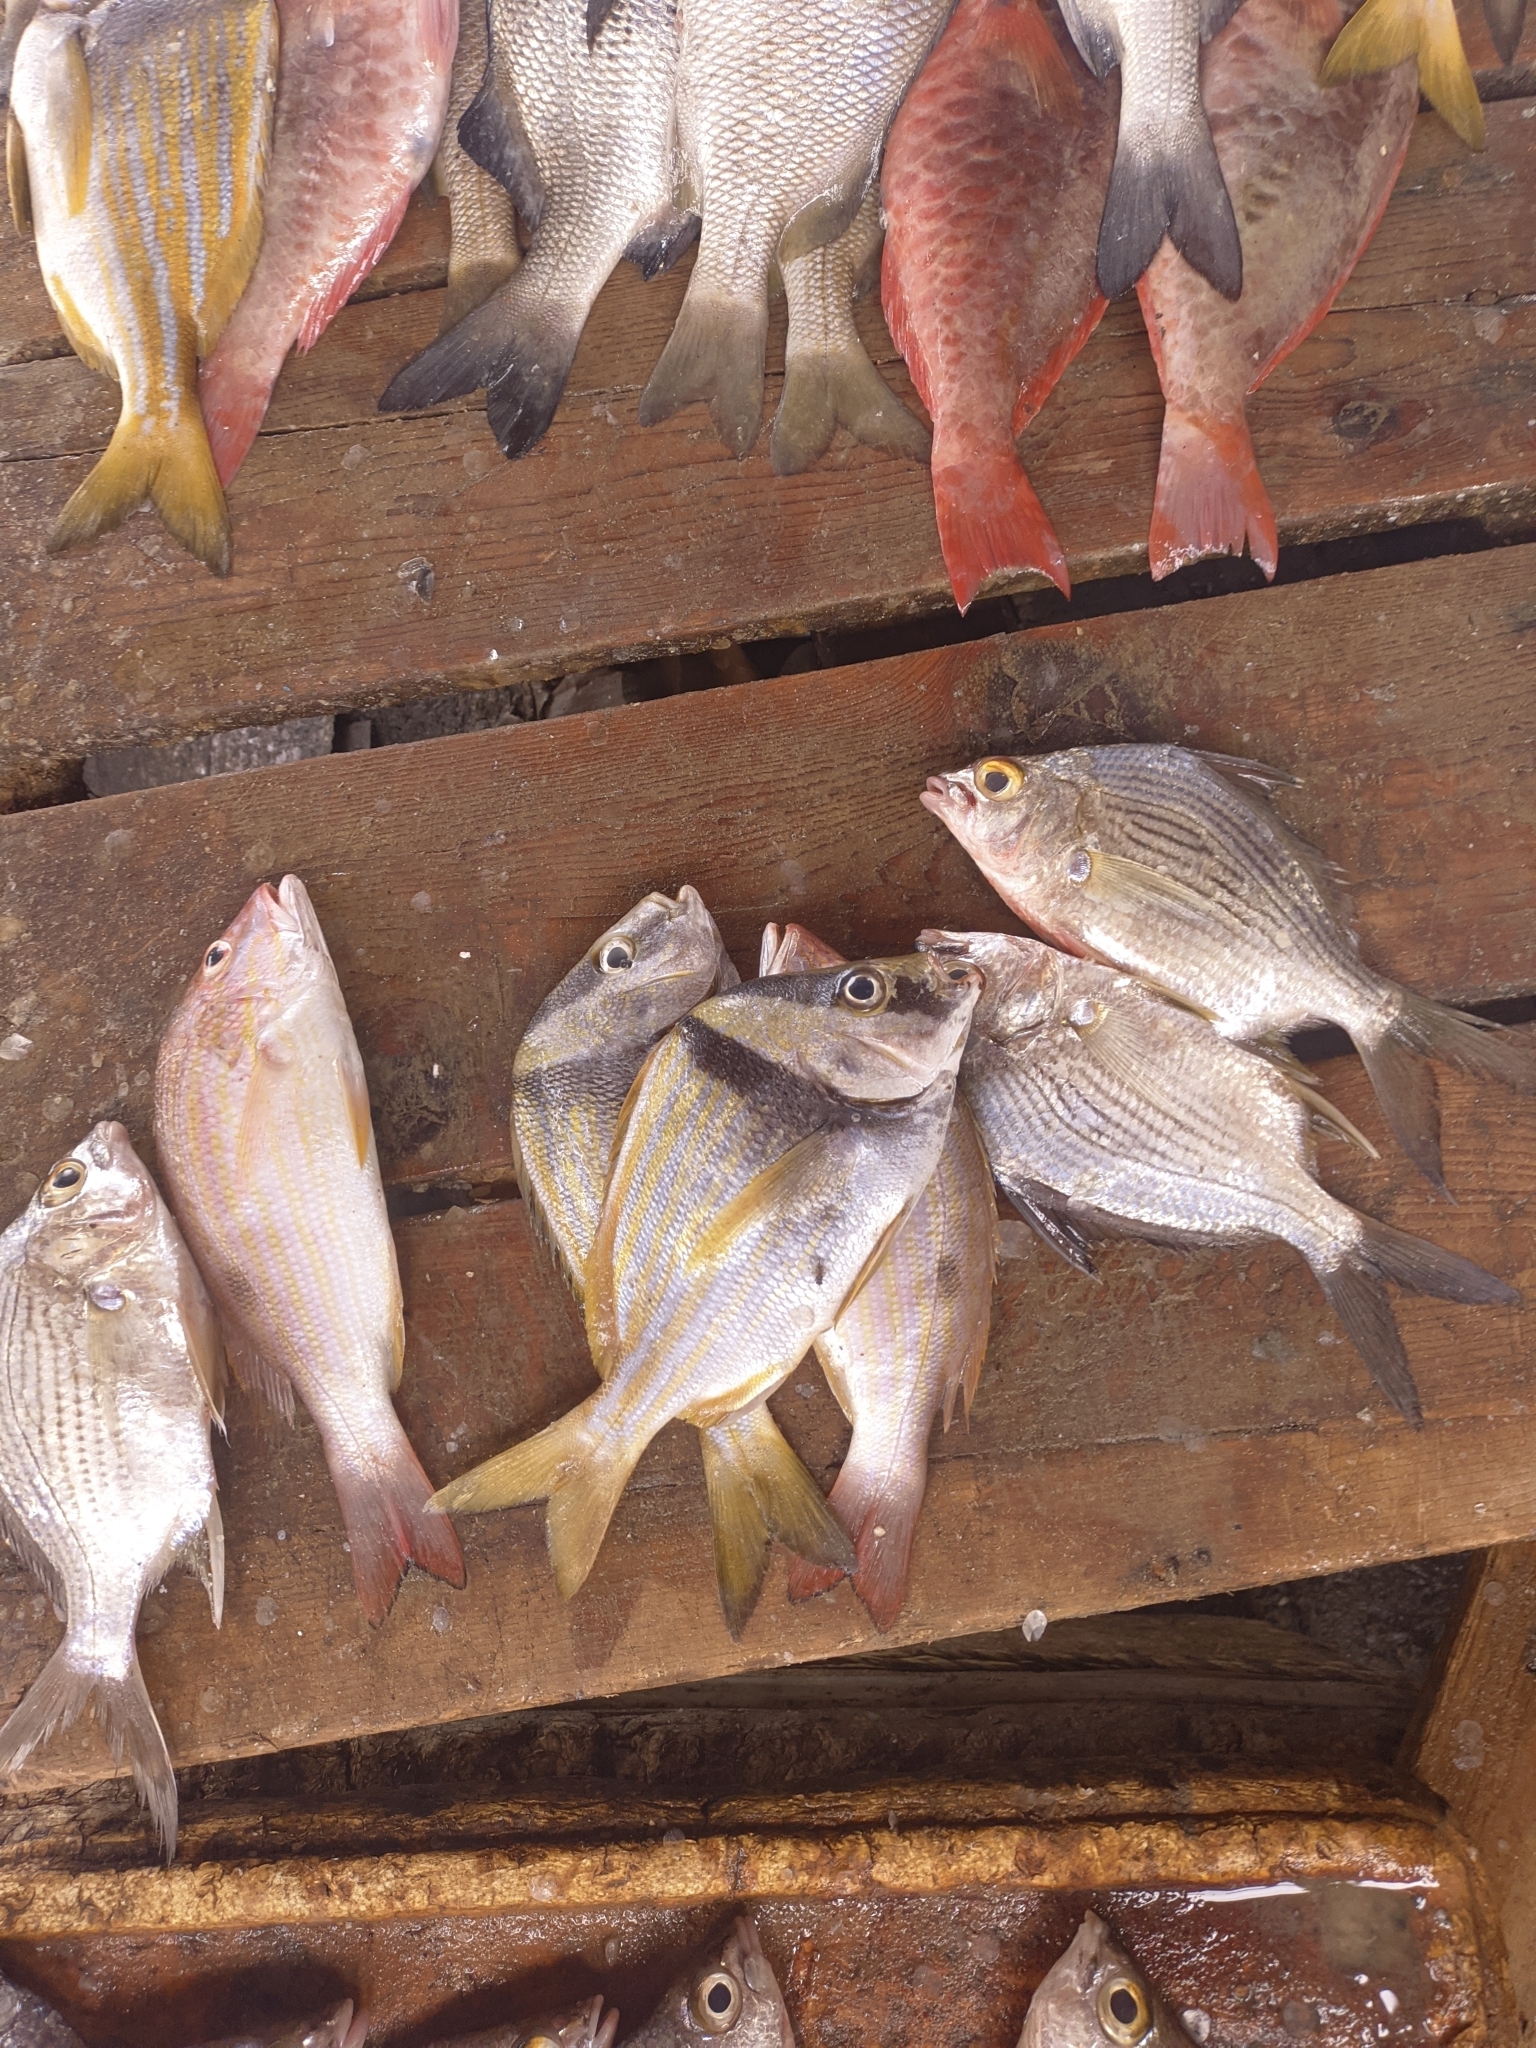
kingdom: Animalia
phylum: Chordata
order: Perciformes
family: Haemulidae
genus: Anisotremus
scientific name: Anisotremus virginicus
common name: Porkfish
